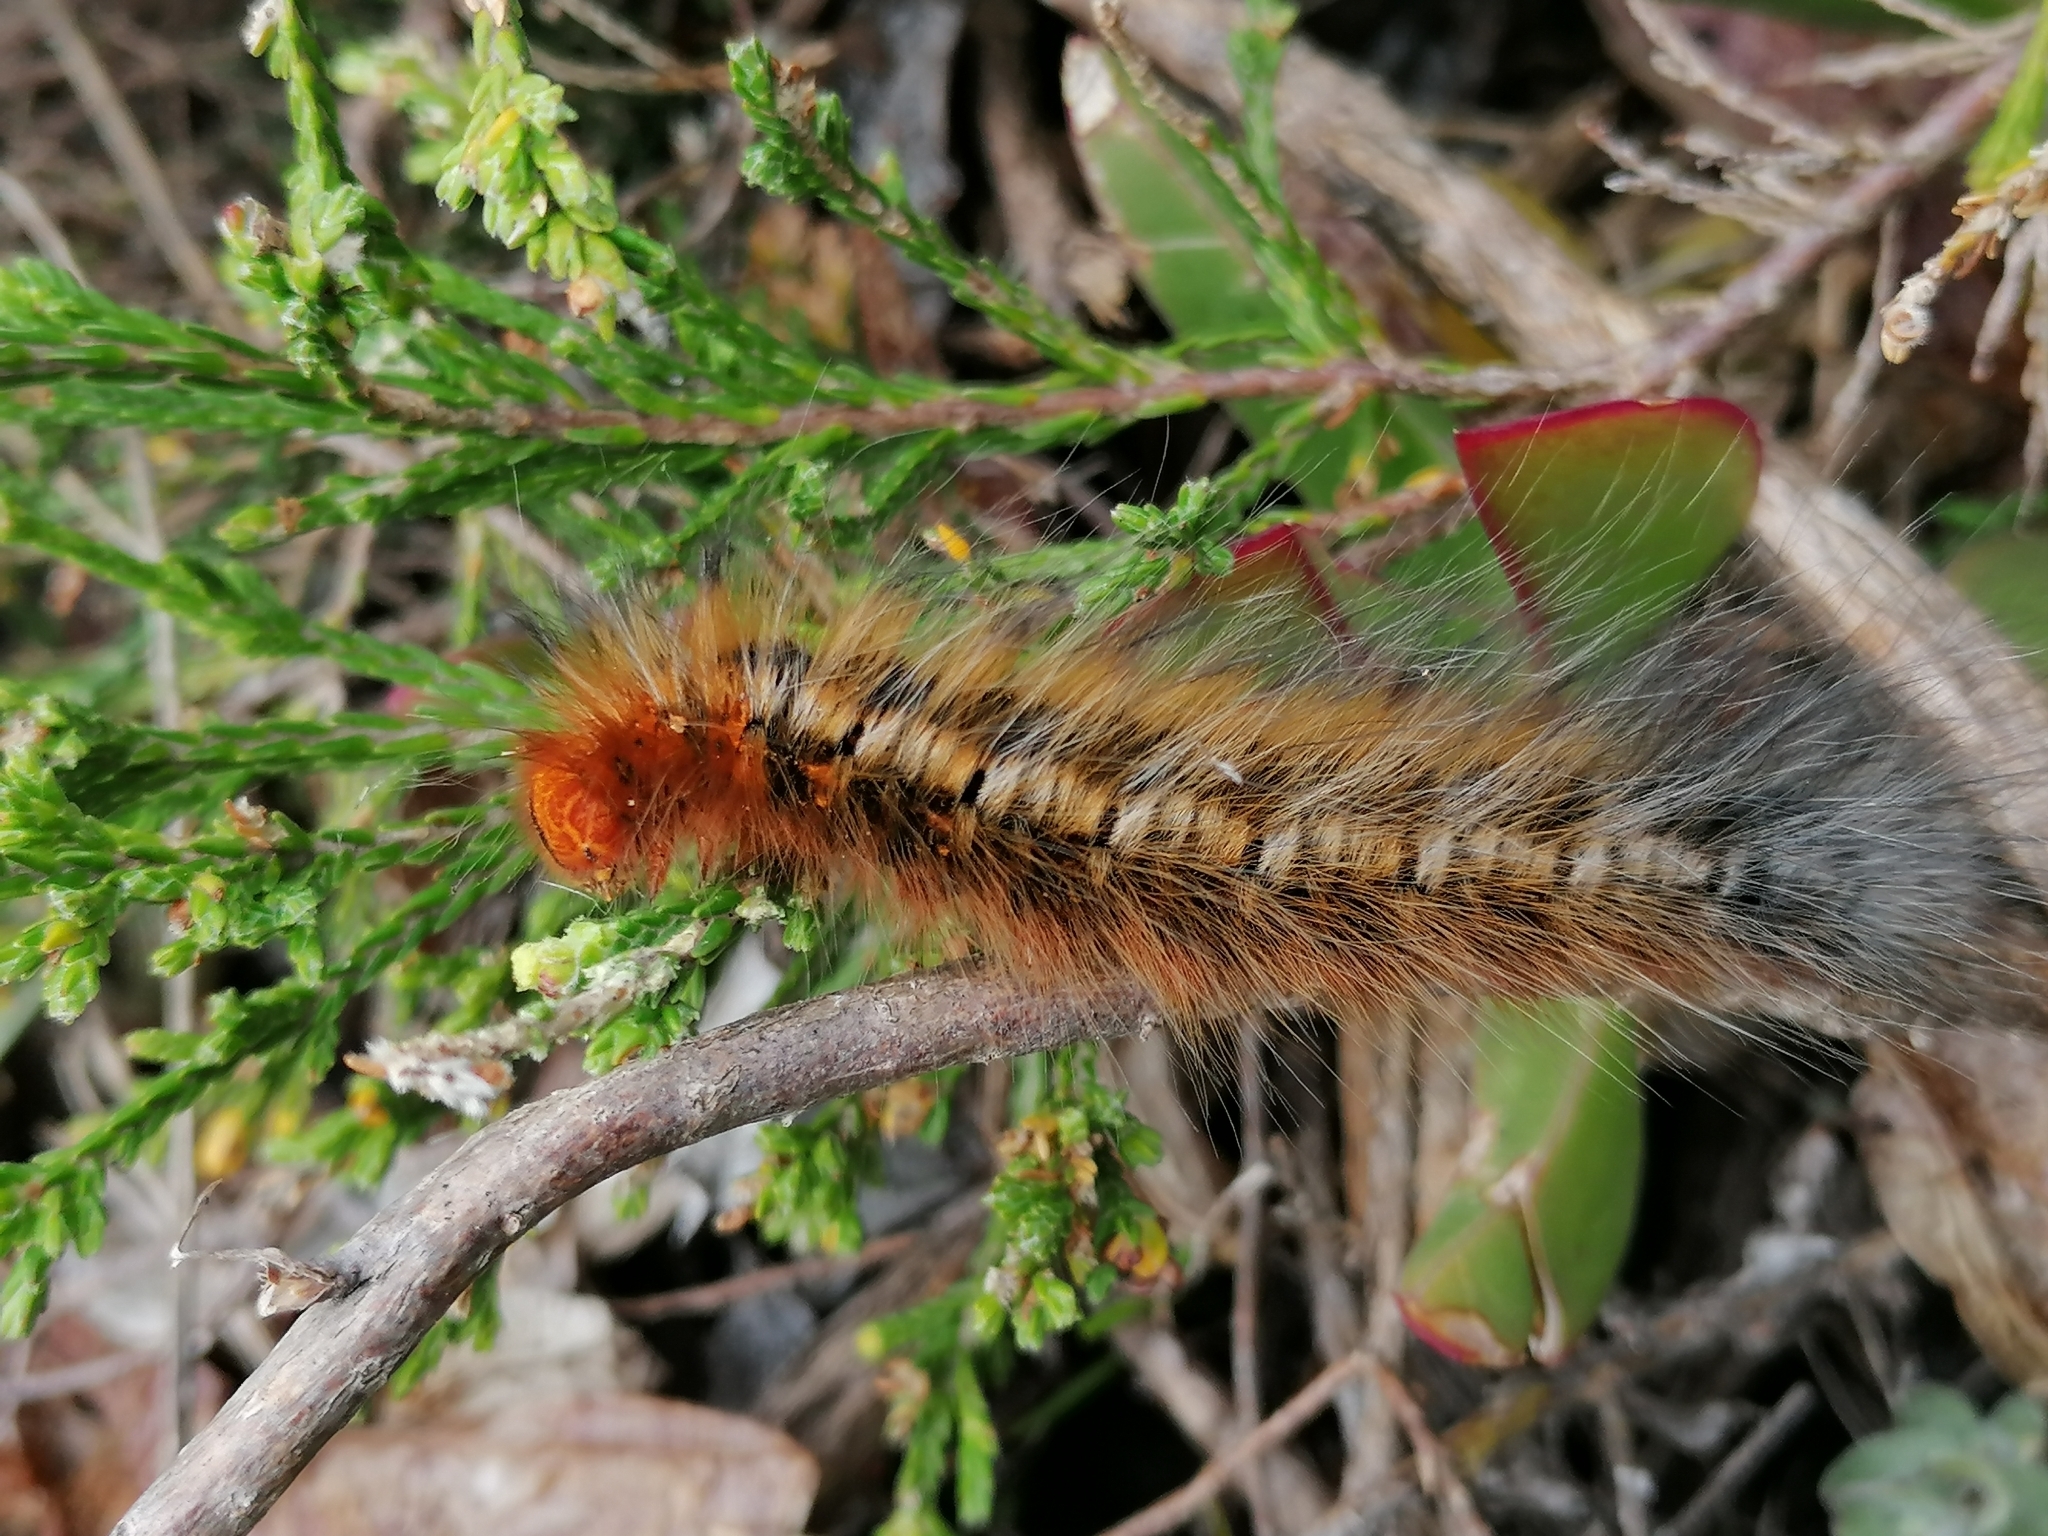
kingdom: Animalia
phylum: Arthropoda
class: Insecta
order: Lepidoptera
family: Lasiocampidae
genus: Mesocelis
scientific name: Mesocelis monticola
